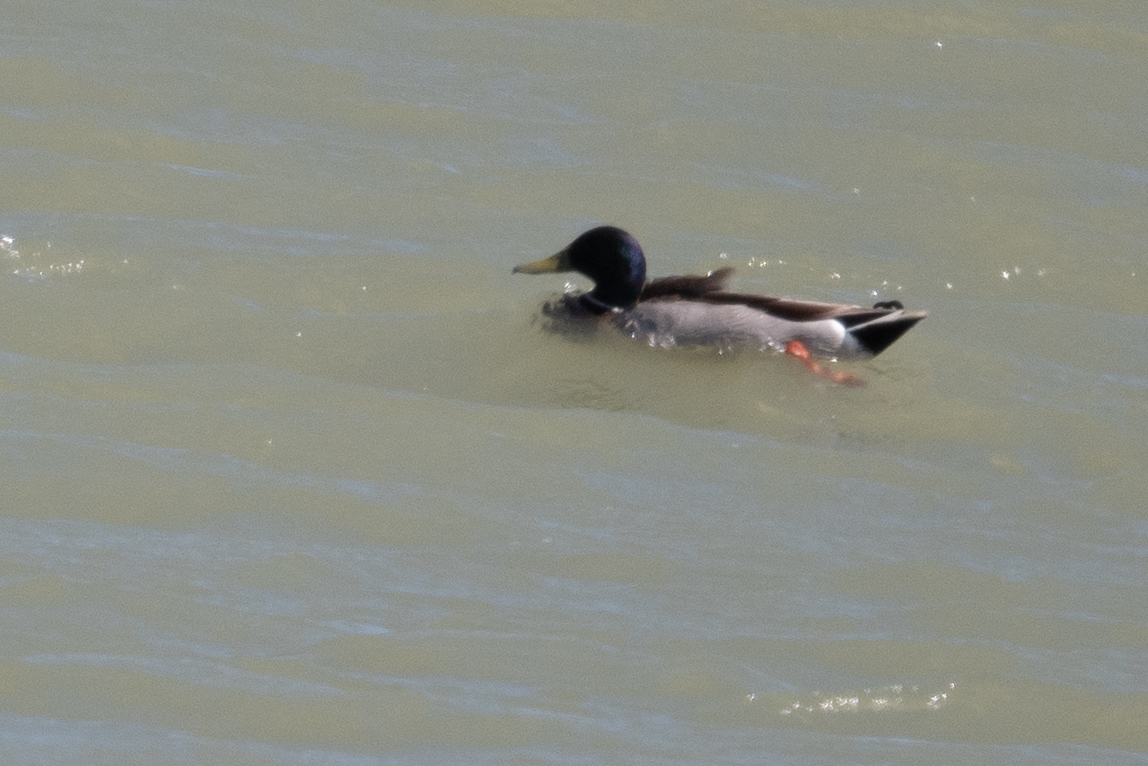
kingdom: Animalia
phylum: Chordata
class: Aves
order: Anseriformes
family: Anatidae
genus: Anas
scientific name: Anas platyrhynchos
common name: Mallard
